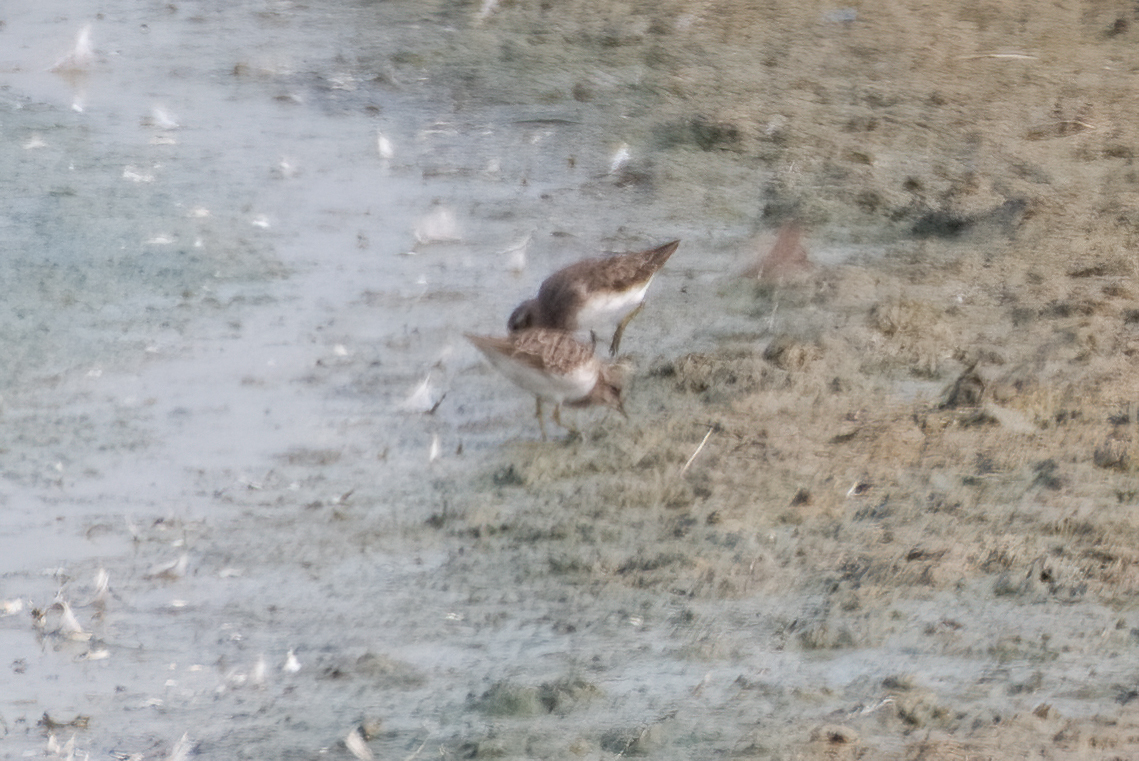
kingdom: Animalia
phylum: Chordata
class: Aves
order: Charadriiformes
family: Scolopacidae
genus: Calidris
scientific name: Calidris minutilla
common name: Least sandpiper
